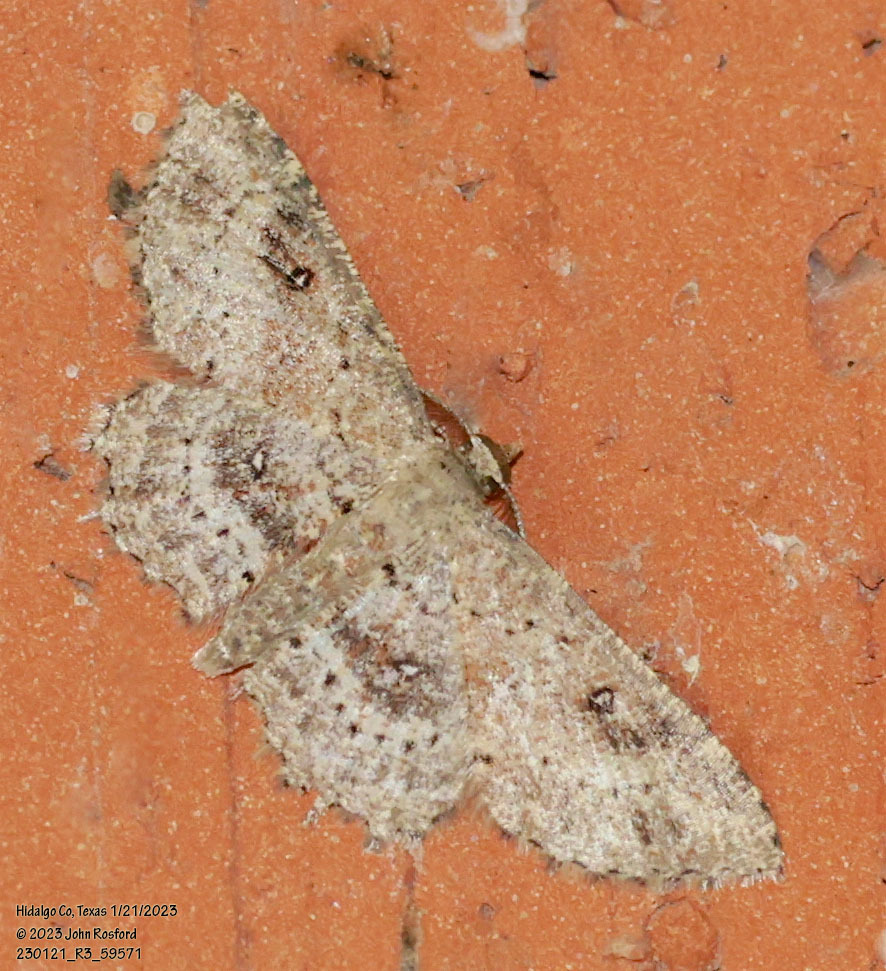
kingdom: Animalia
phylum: Arthropoda
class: Insecta
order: Lepidoptera
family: Geometridae
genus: Cyclophora
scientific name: Cyclophora nanaria
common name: Cankerworm
